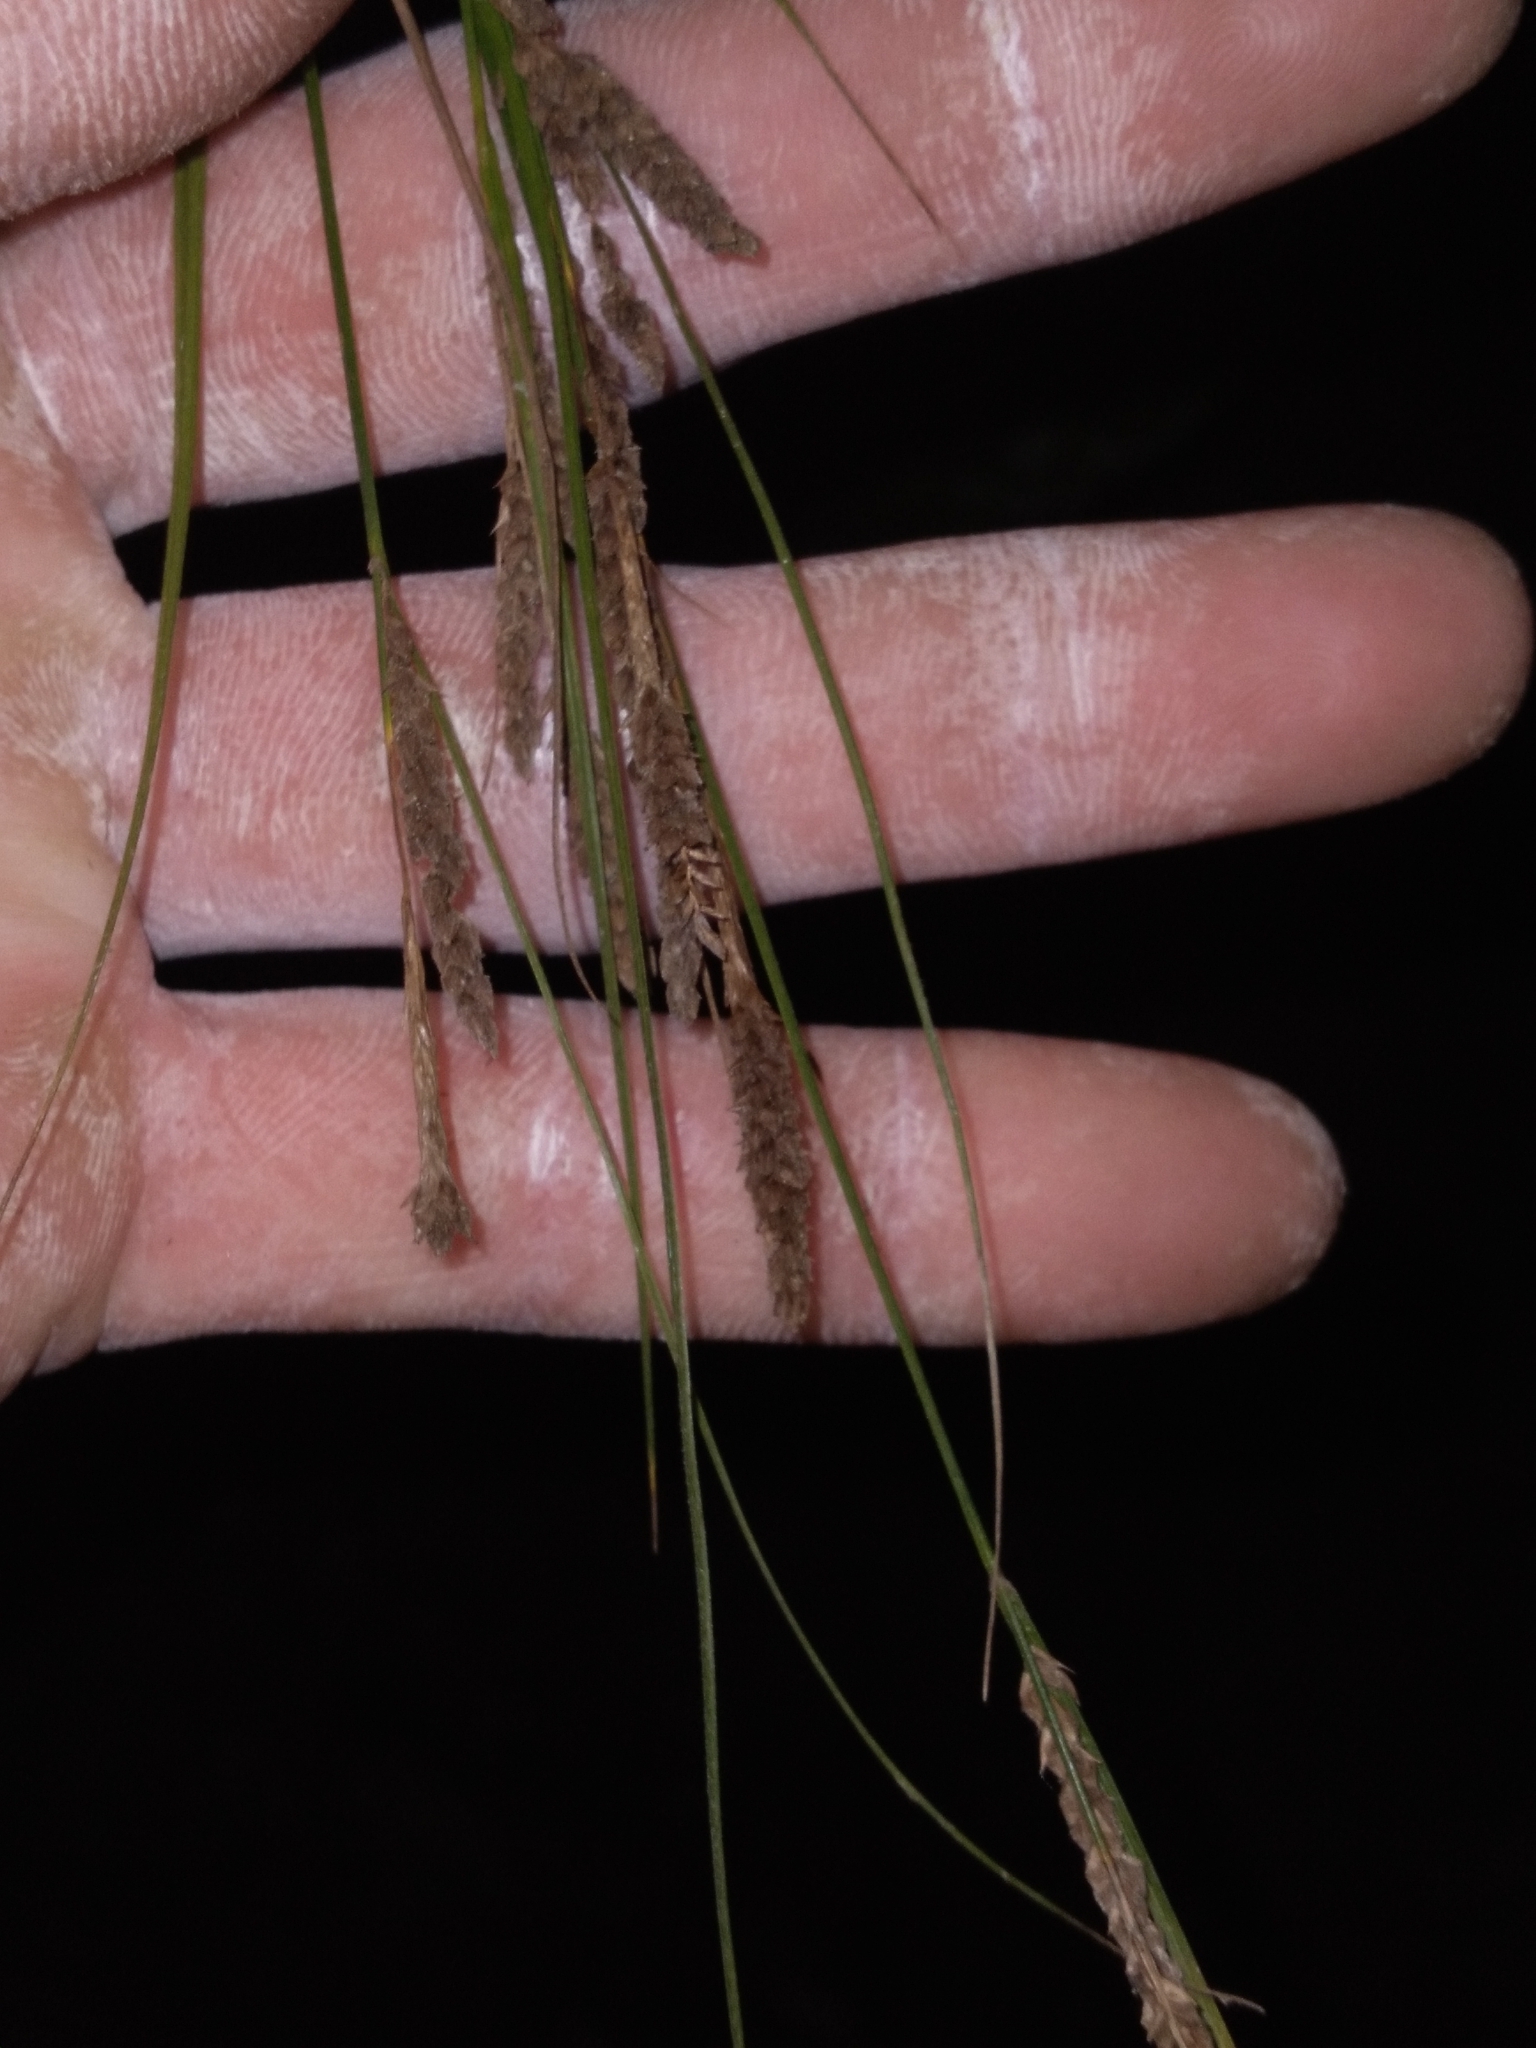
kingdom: Plantae
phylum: Tracheophyta
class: Liliopsida
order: Poales
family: Cyperaceae
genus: Carex
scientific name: Carex virescens
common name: Ribbed sedge
